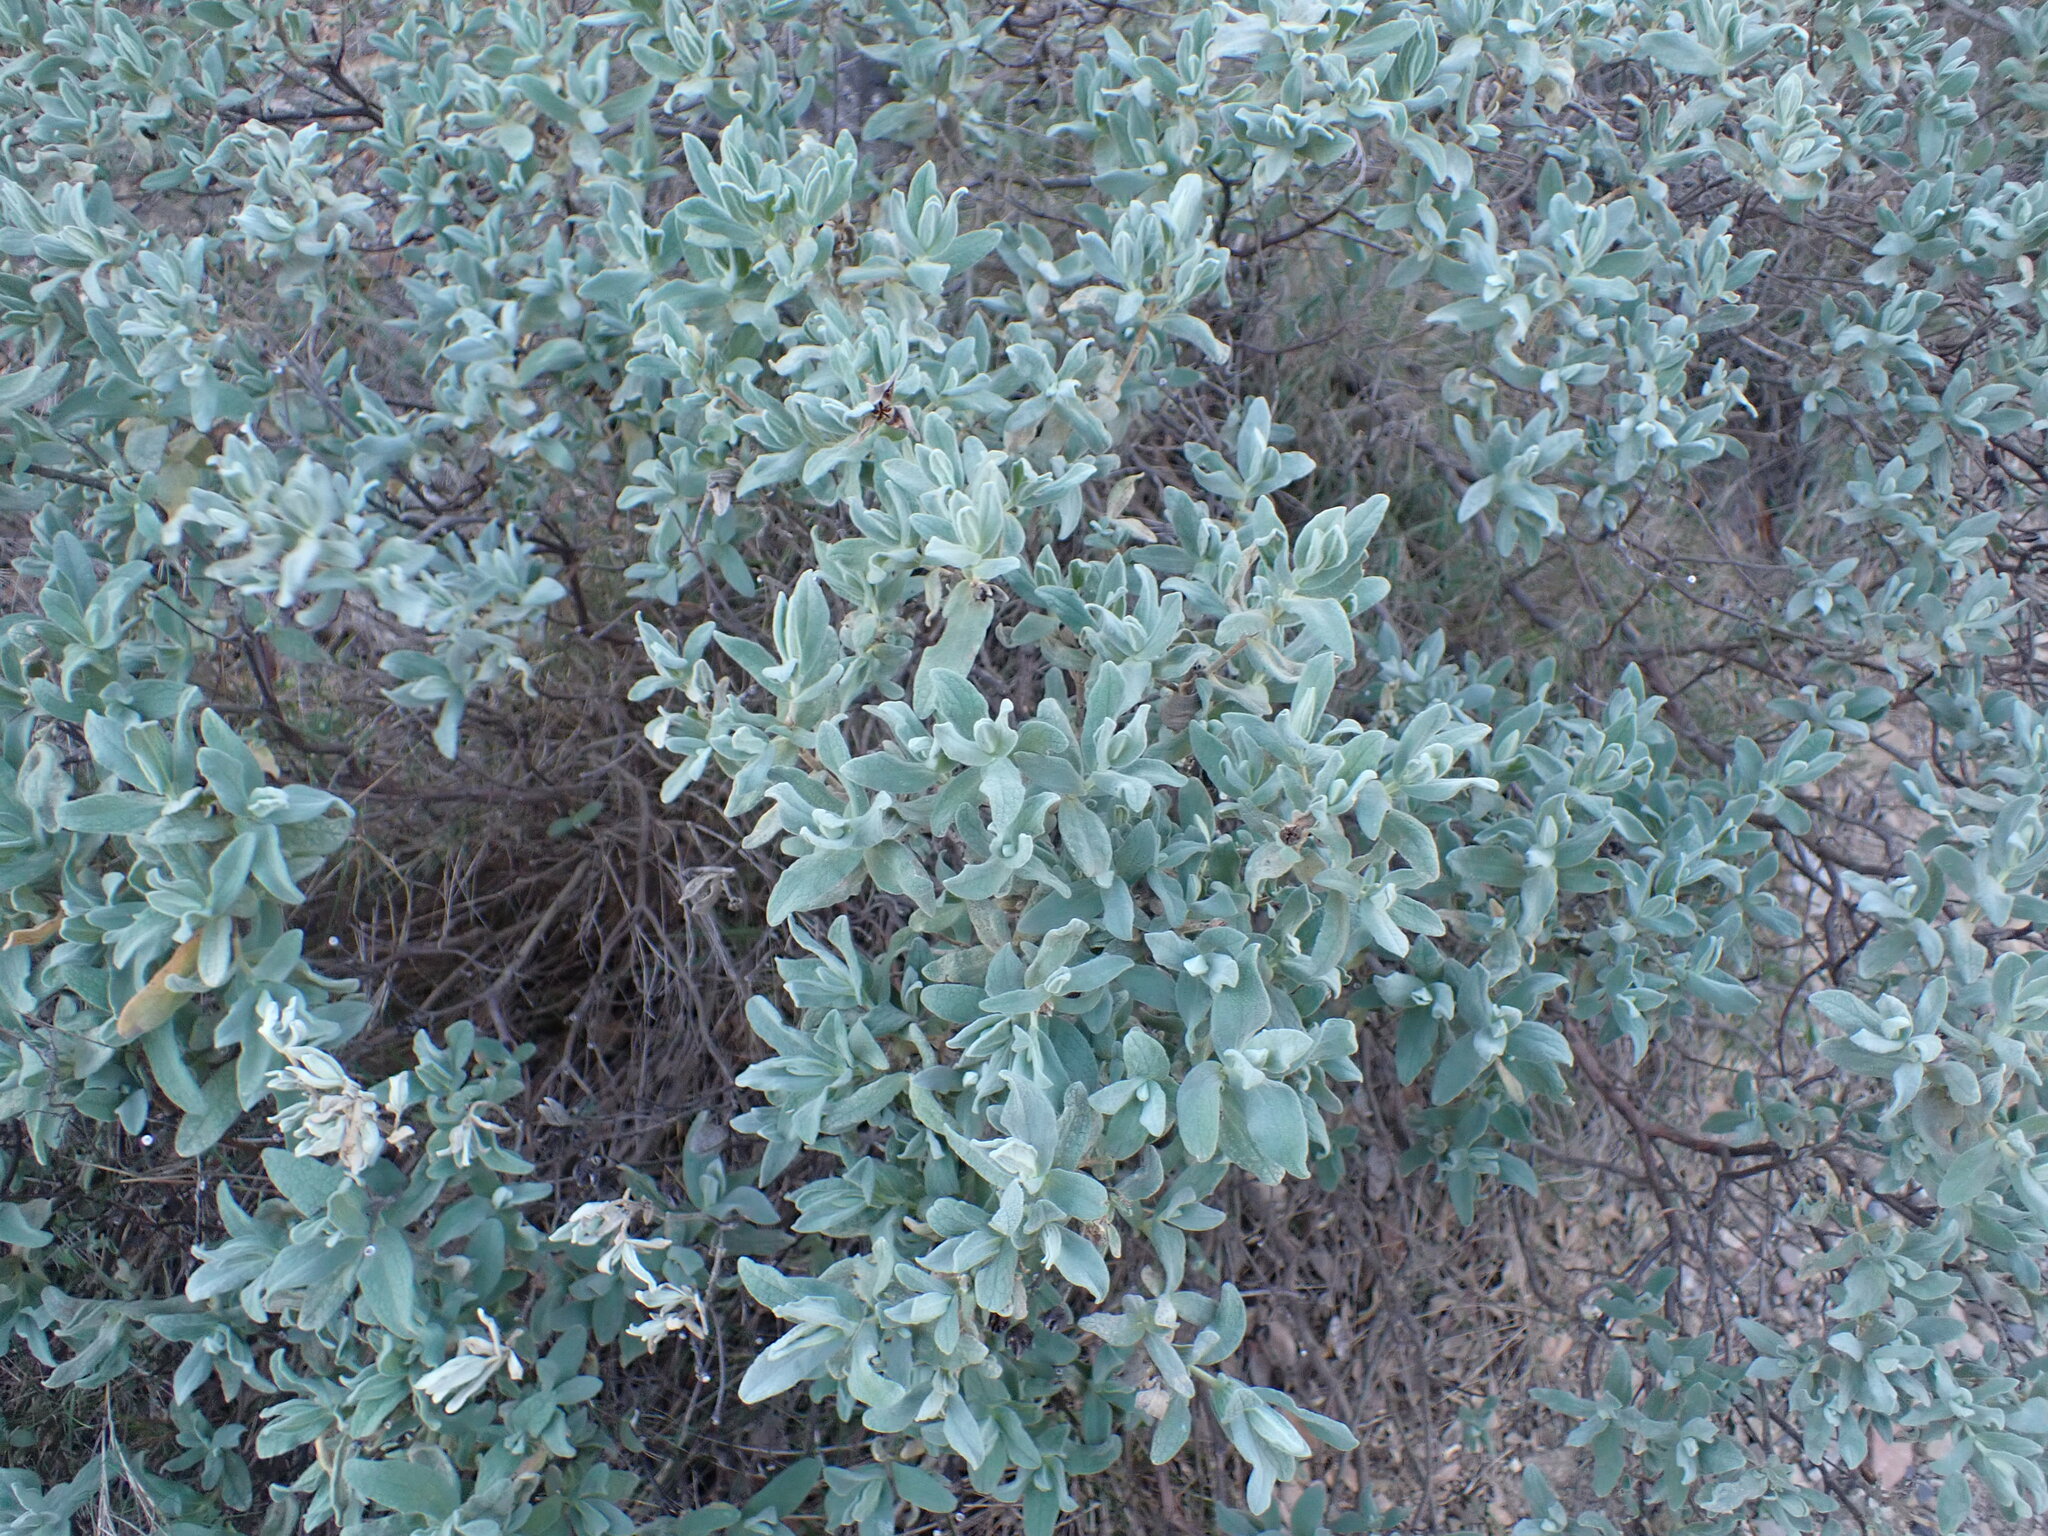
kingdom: Plantae
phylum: Tracheophyta
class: Magnoliopsida
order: Malvales
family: Cistaceae
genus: Cistus
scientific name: Cistus albidus
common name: White-leaf rock-rose
